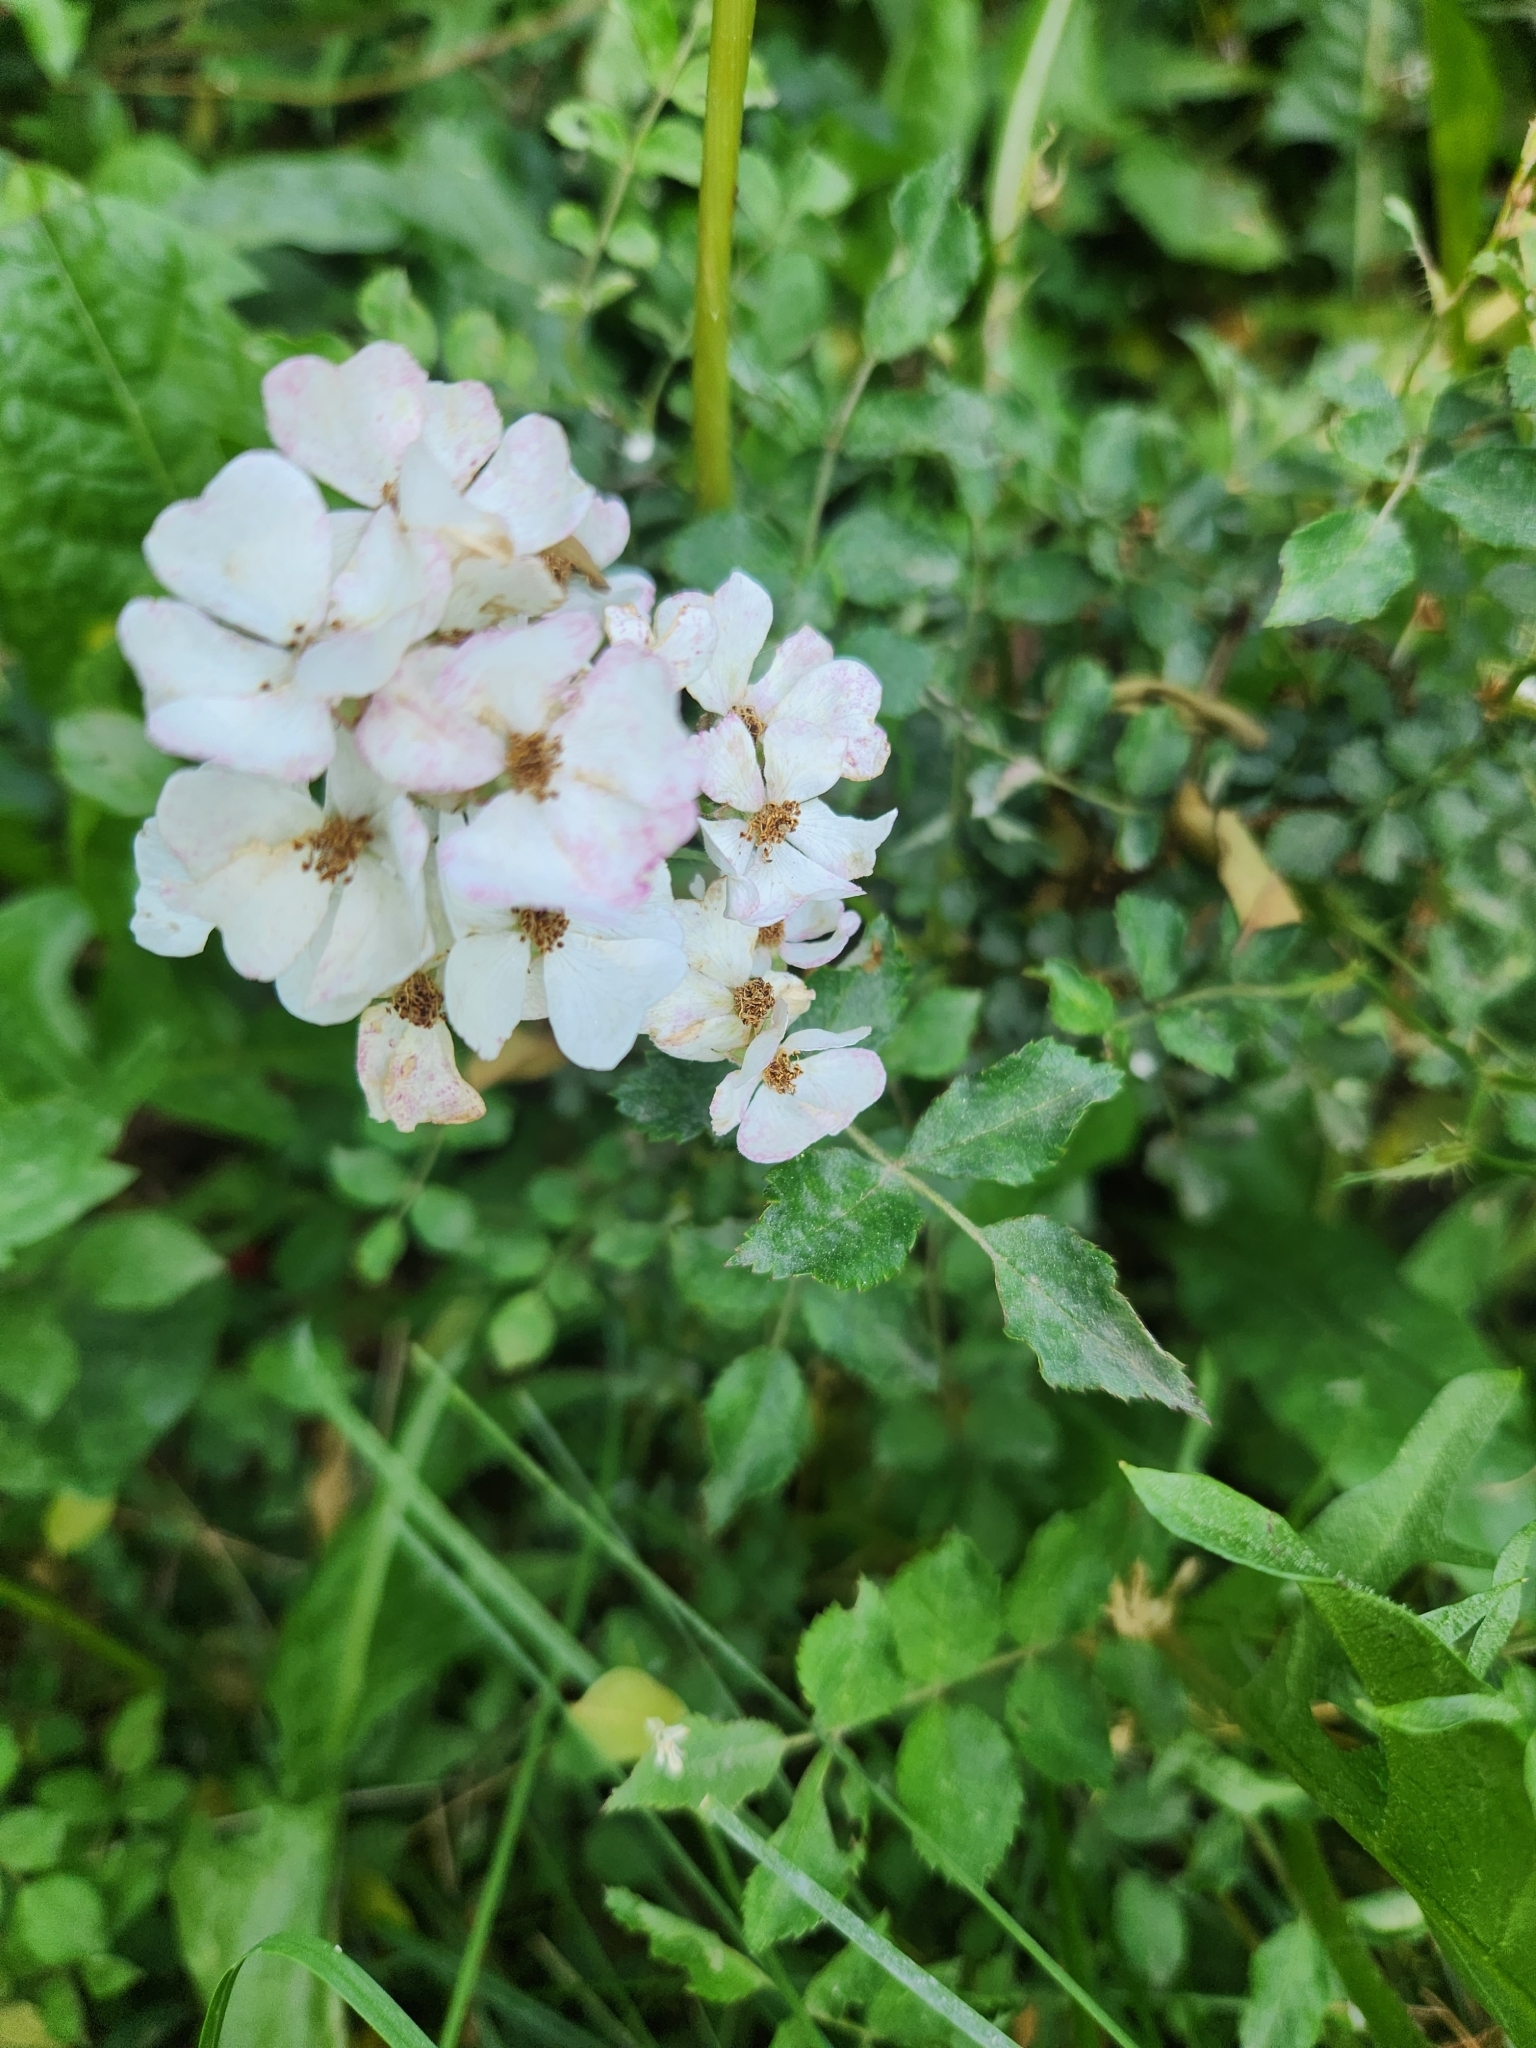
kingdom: Plantae
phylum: Tracheophyta
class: Magnoliopsida
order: Rosales
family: Rosaceae
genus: Rosa
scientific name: Rosa multiflora
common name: Multiflora rose
